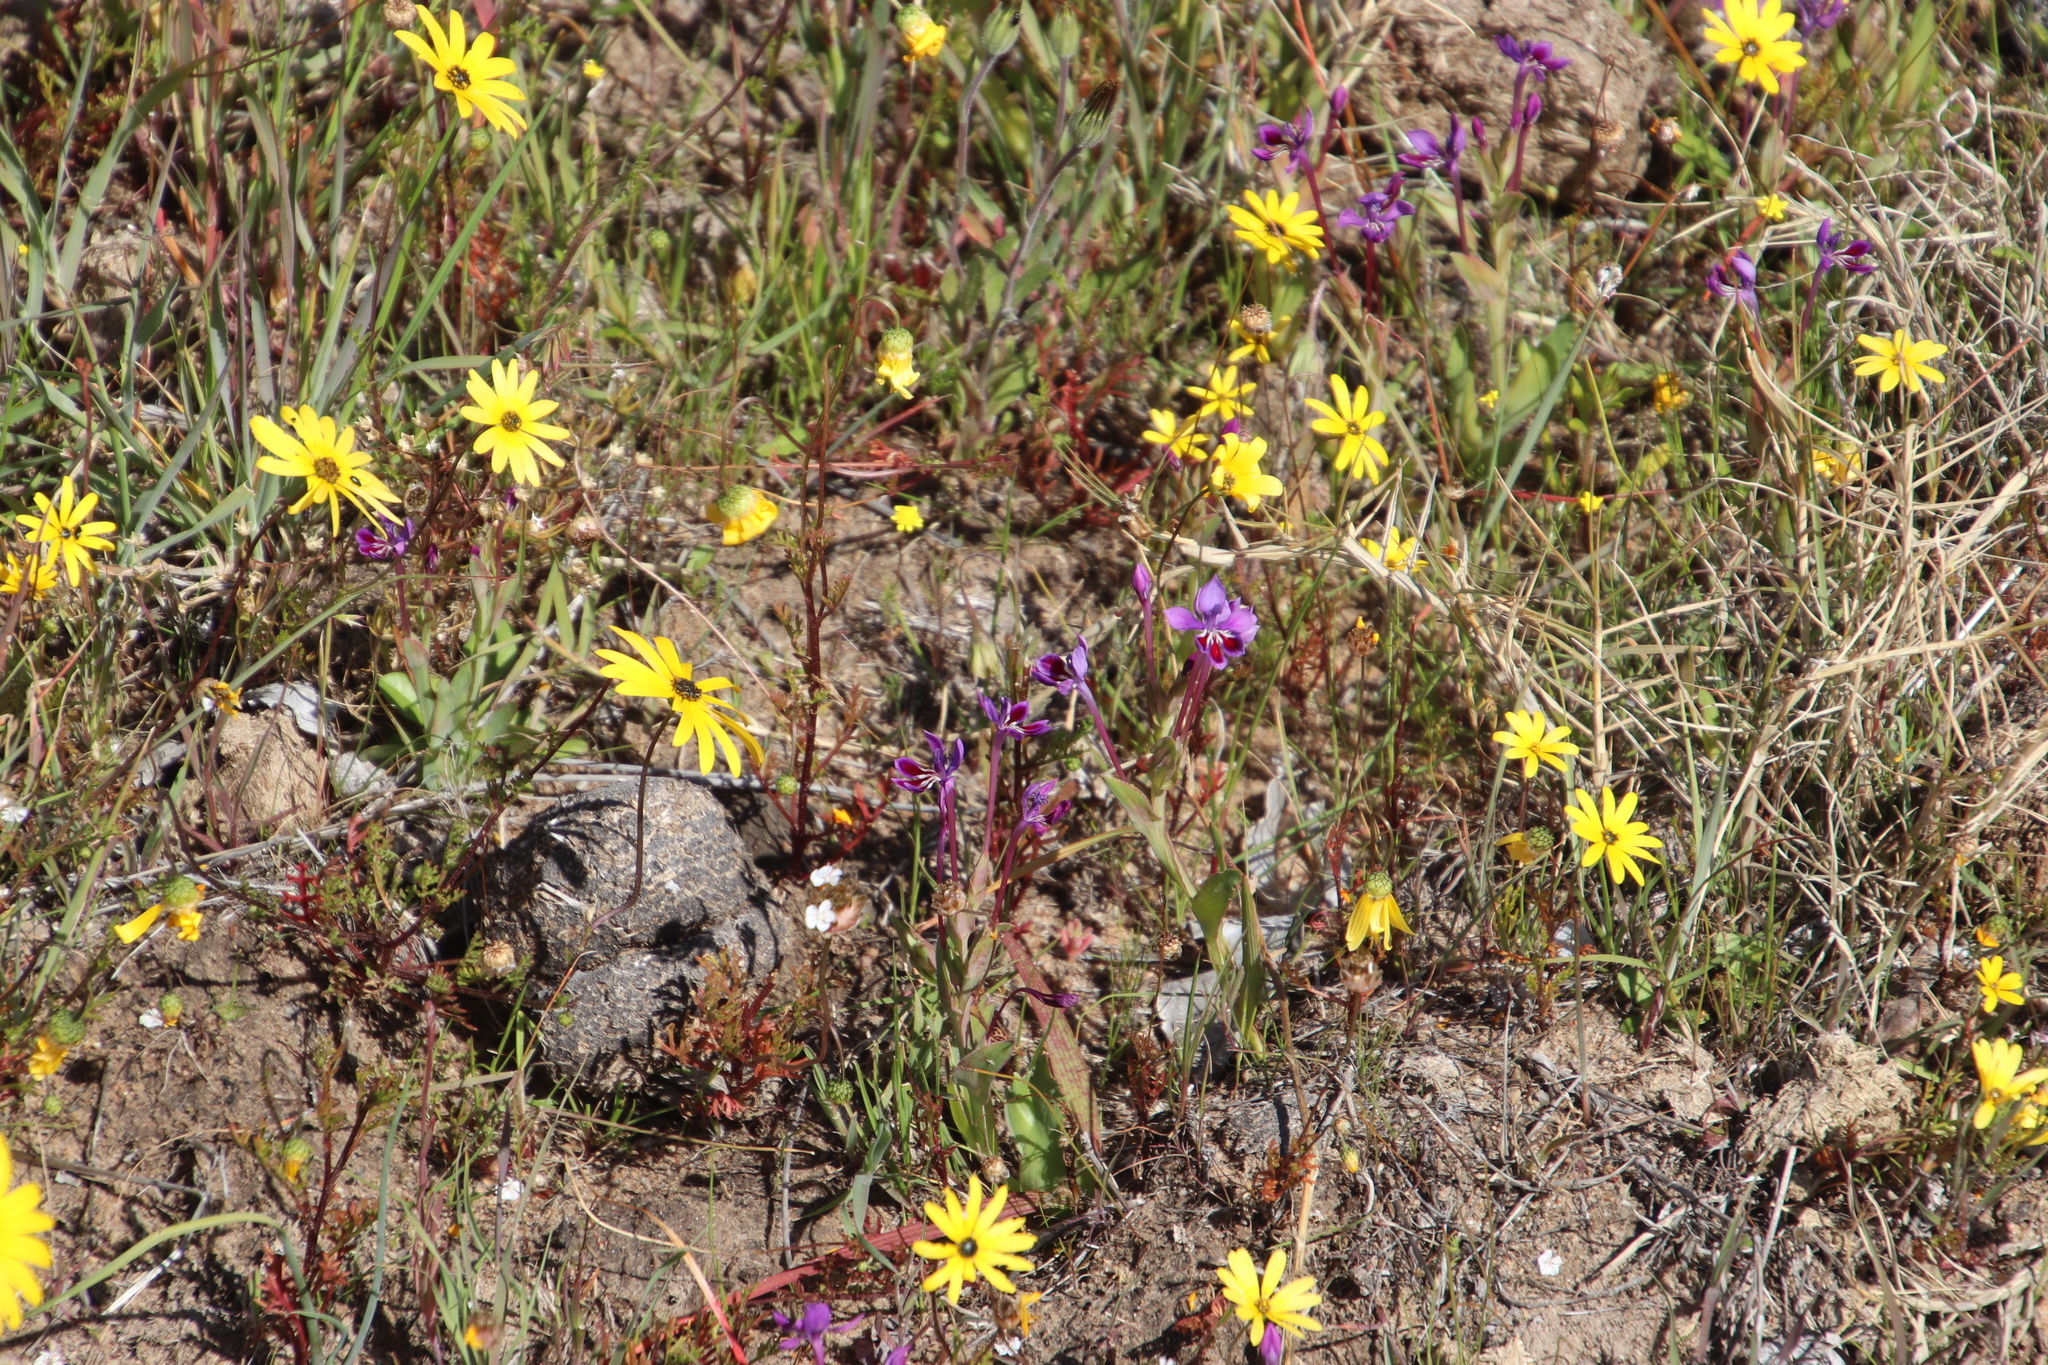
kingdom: Plantae
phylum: Tracheophyta
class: Liliopsida
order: Asparagales
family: Iridaceae
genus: Lapeirousia
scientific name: Lapeirousia jacquinii
